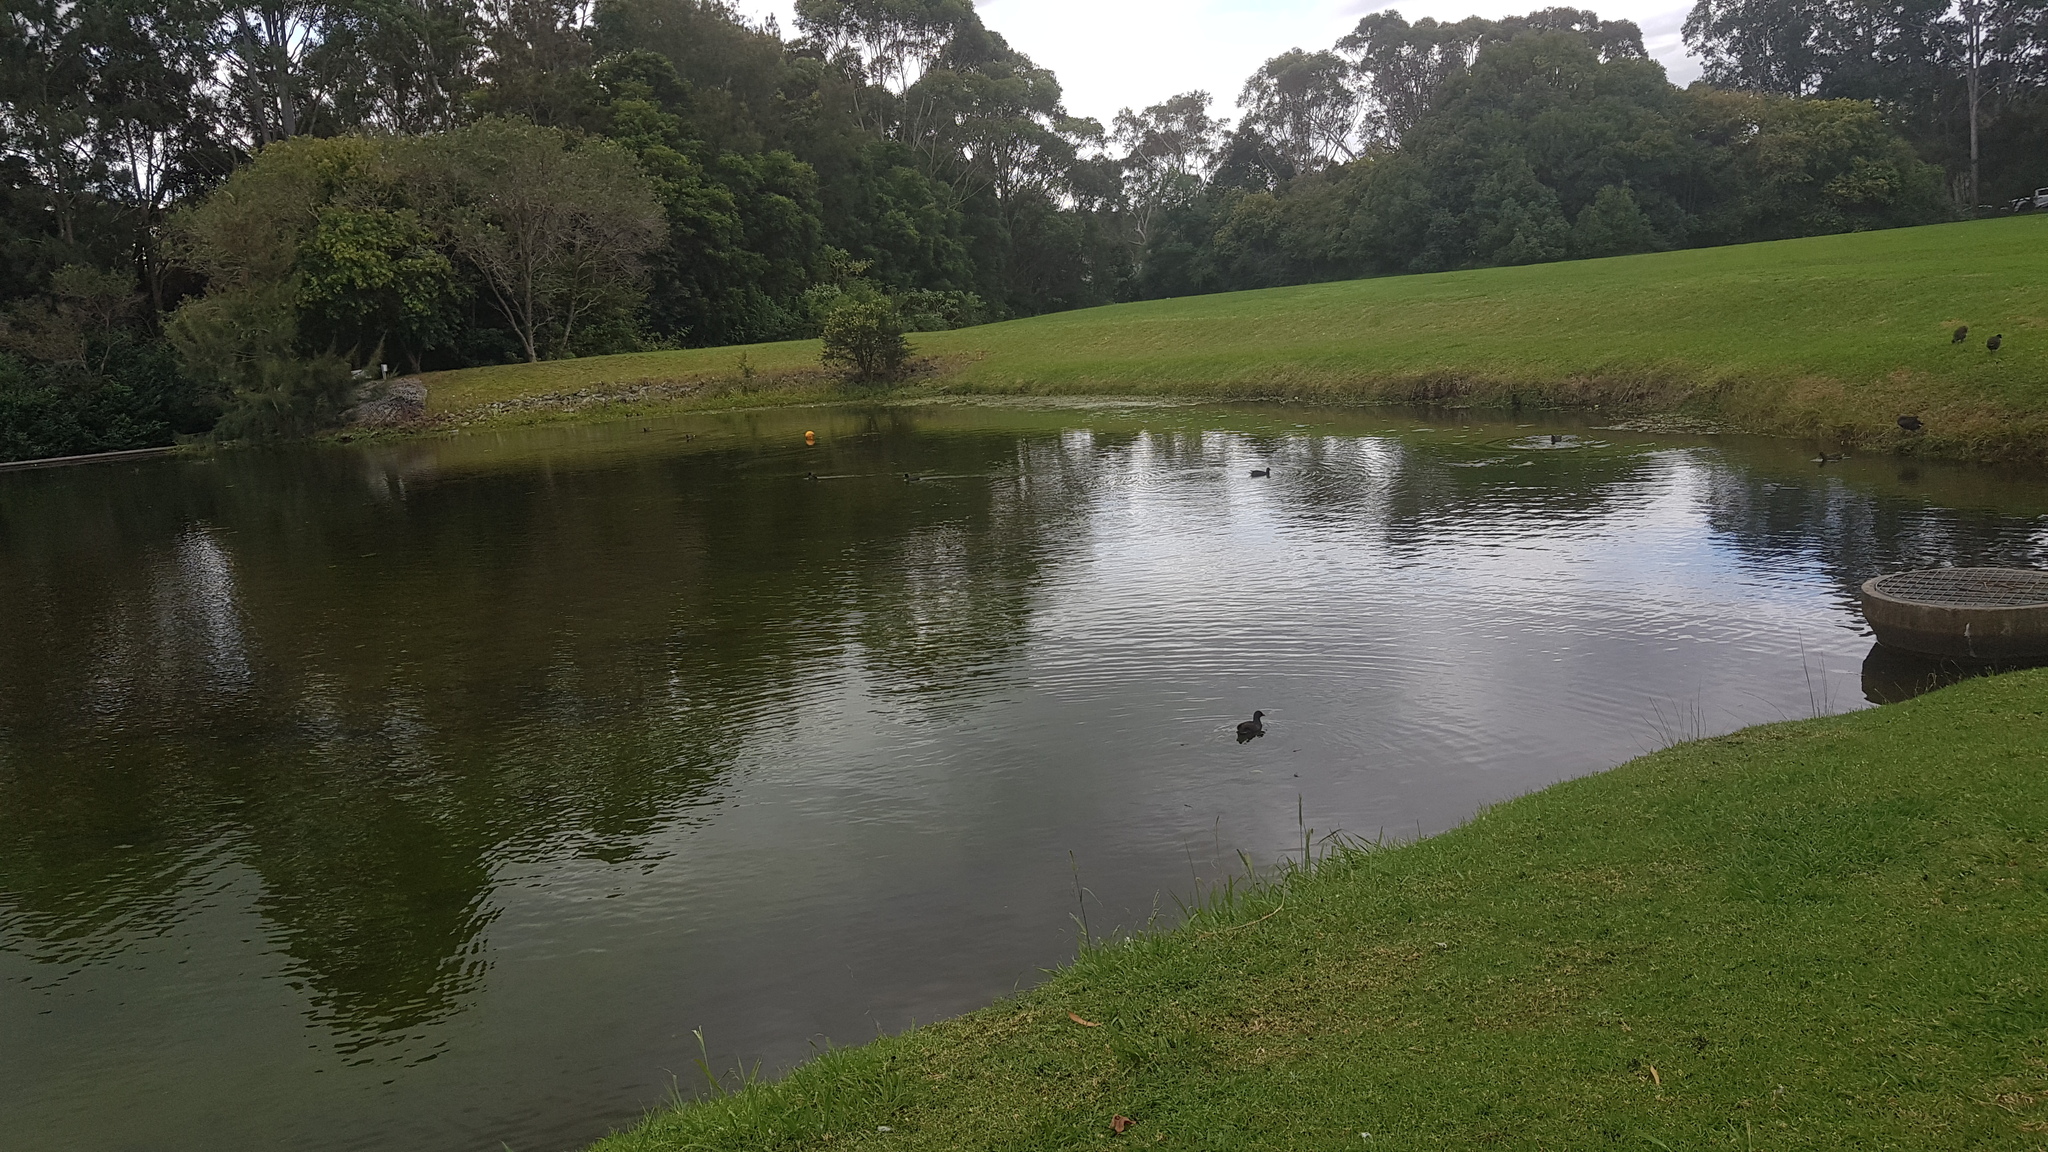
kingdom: Animalia
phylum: Chordata
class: Aves
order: Gruiformes
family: Rallidae
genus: Fulica
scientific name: Fulica atra
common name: Eurasian coot
